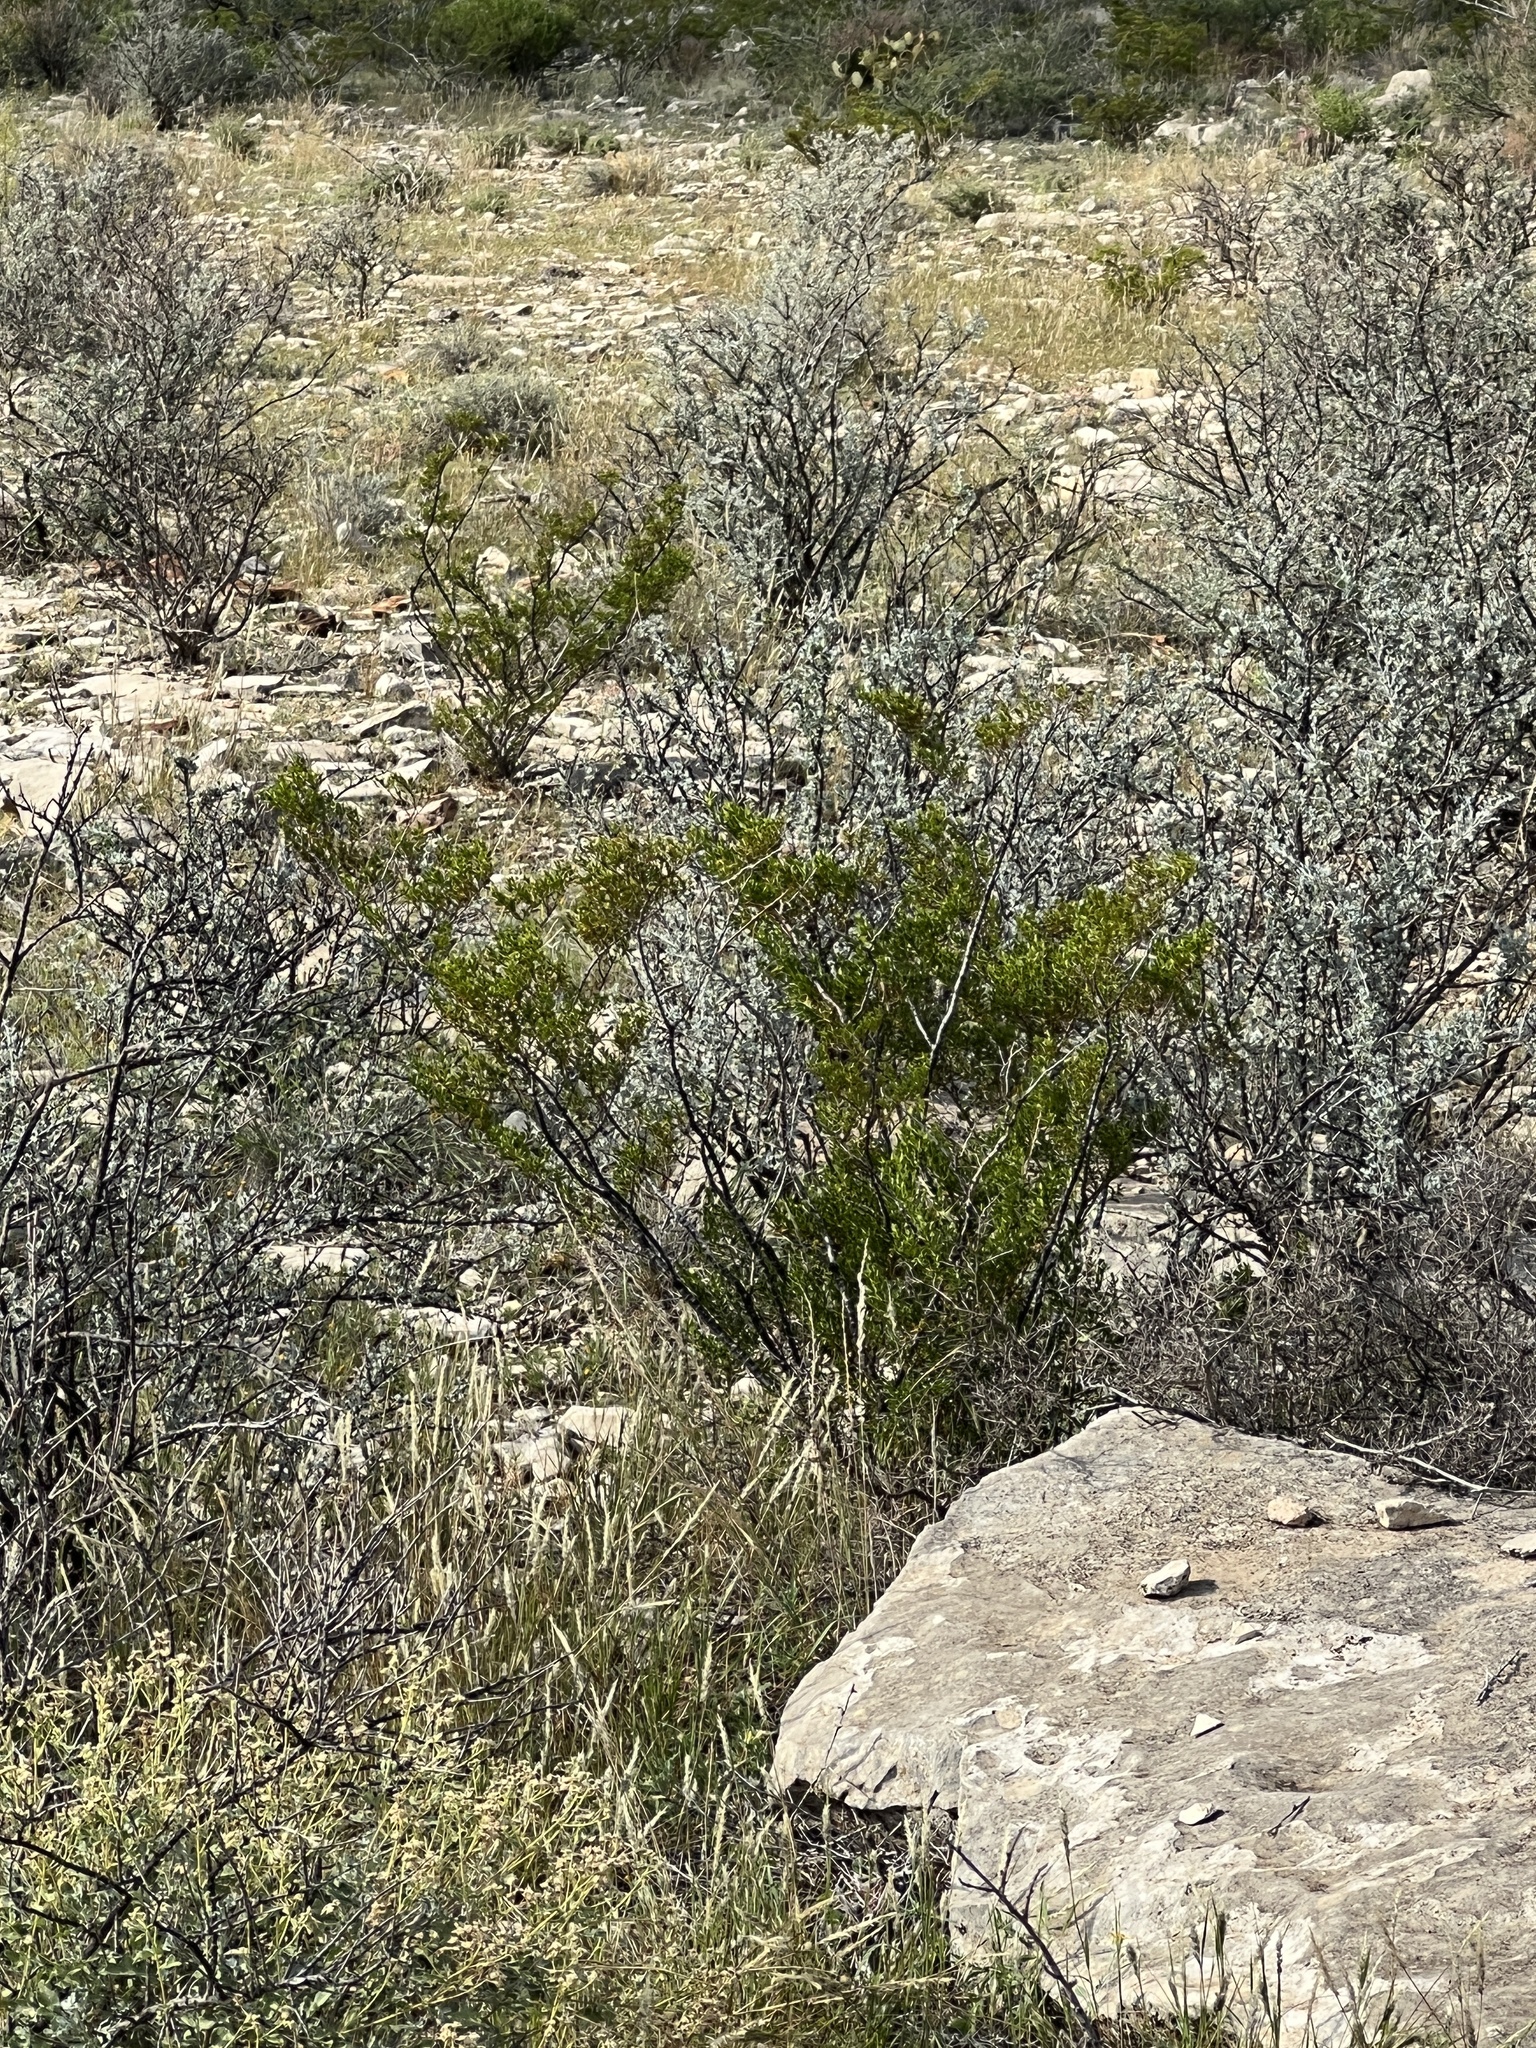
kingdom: Plantae
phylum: Tracheophyta
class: Magnoliopsida
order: Zygophyllales
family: Zygophyllaceae
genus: Larrea
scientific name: Larrea tridentata
